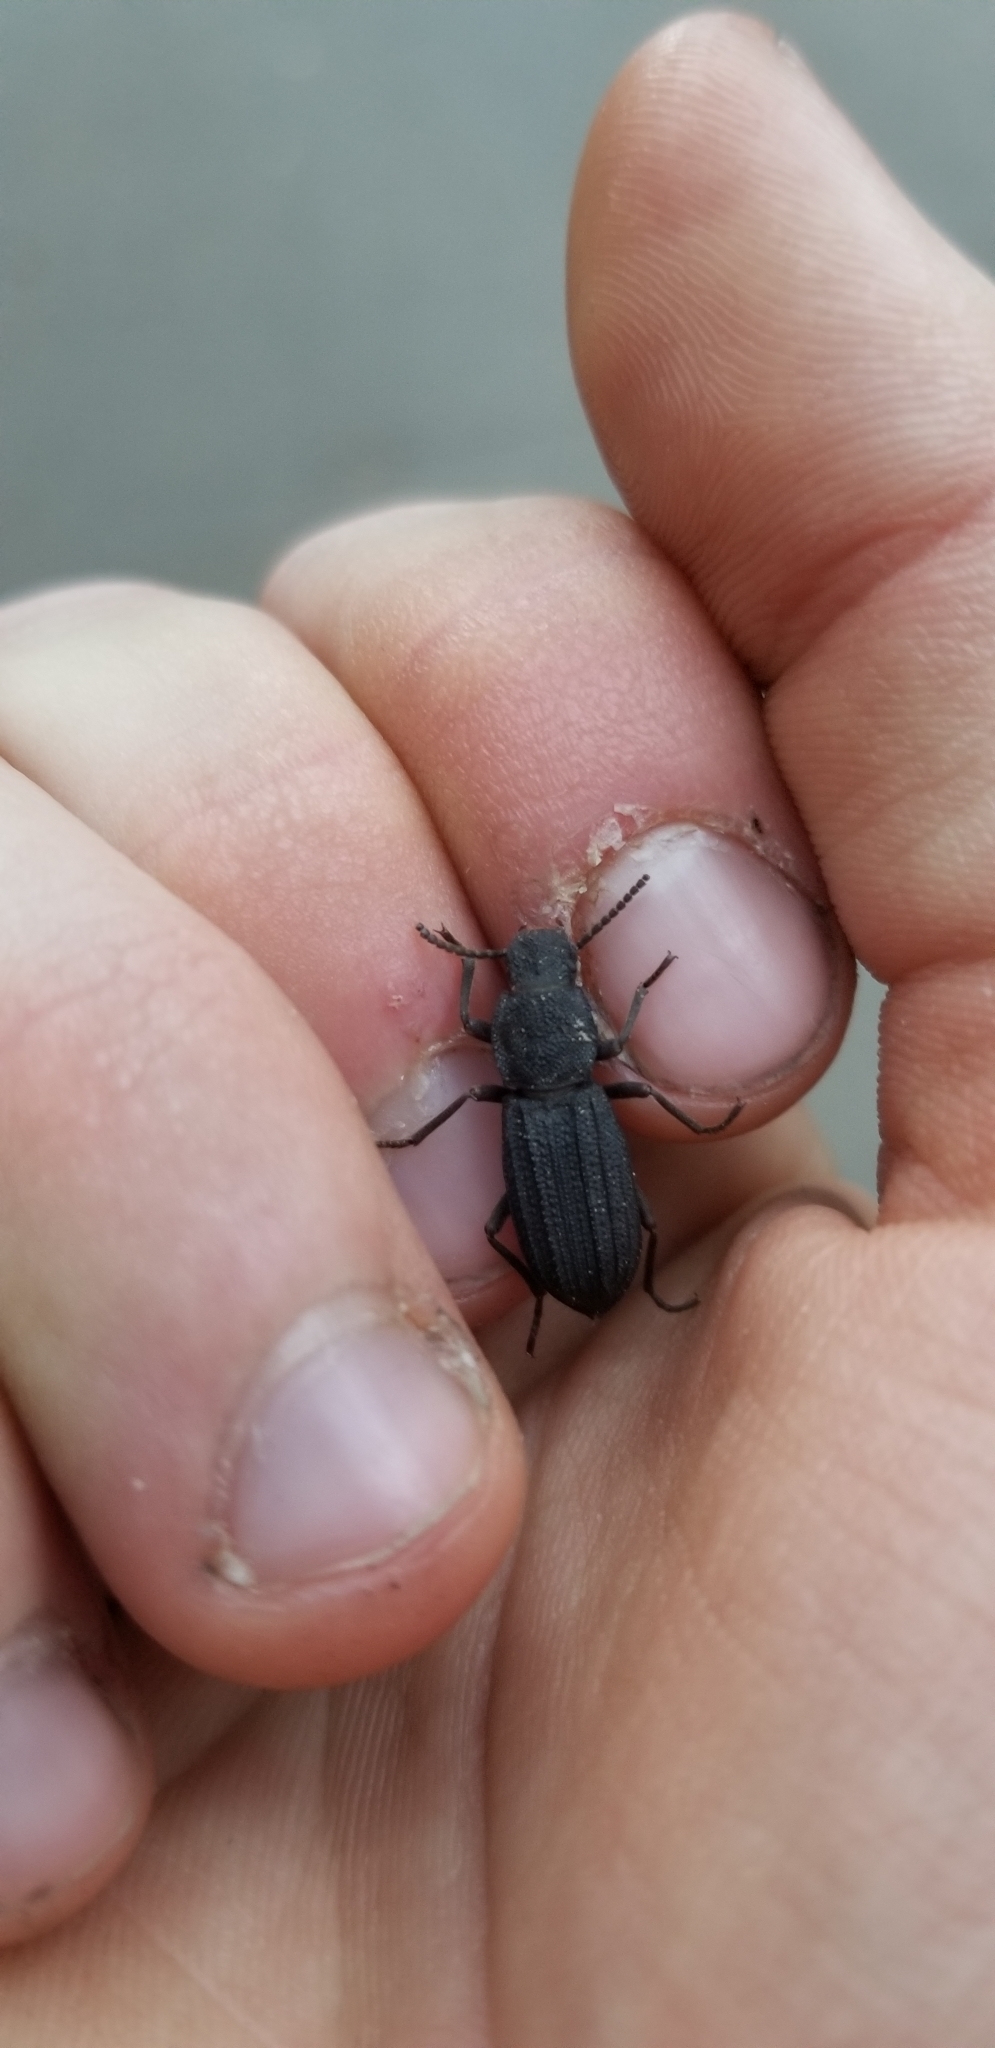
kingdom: Animalia
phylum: Arthropoda
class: Insecta
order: Coleoptera
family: Tenebrionidae
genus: Nyctoporis
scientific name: Nyctoporis carinata
